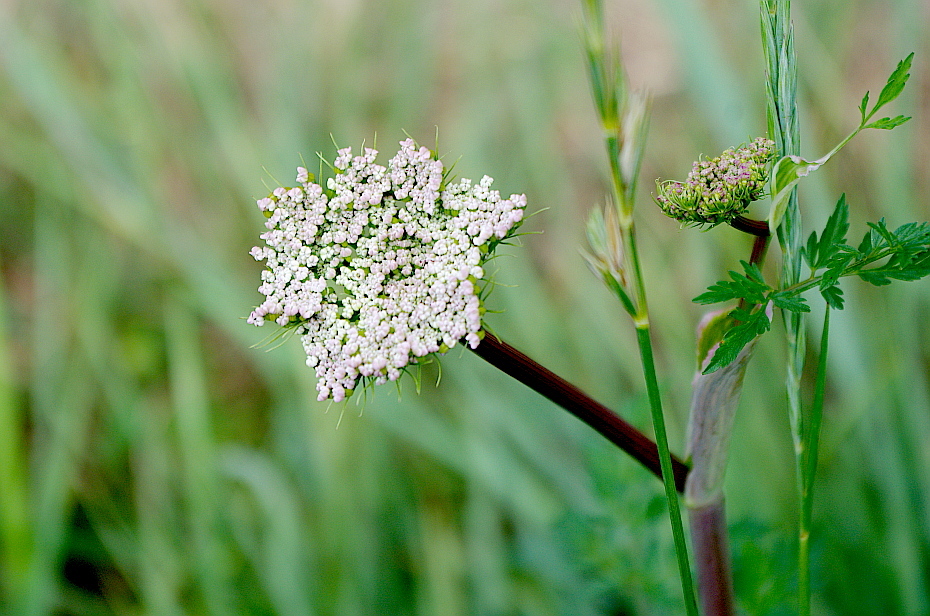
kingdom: Plantae
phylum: Tracheophyta
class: Magnoliopsida
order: Apiales
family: Apiaceae
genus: Conioselinum
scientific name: Conioselinum tataricum
